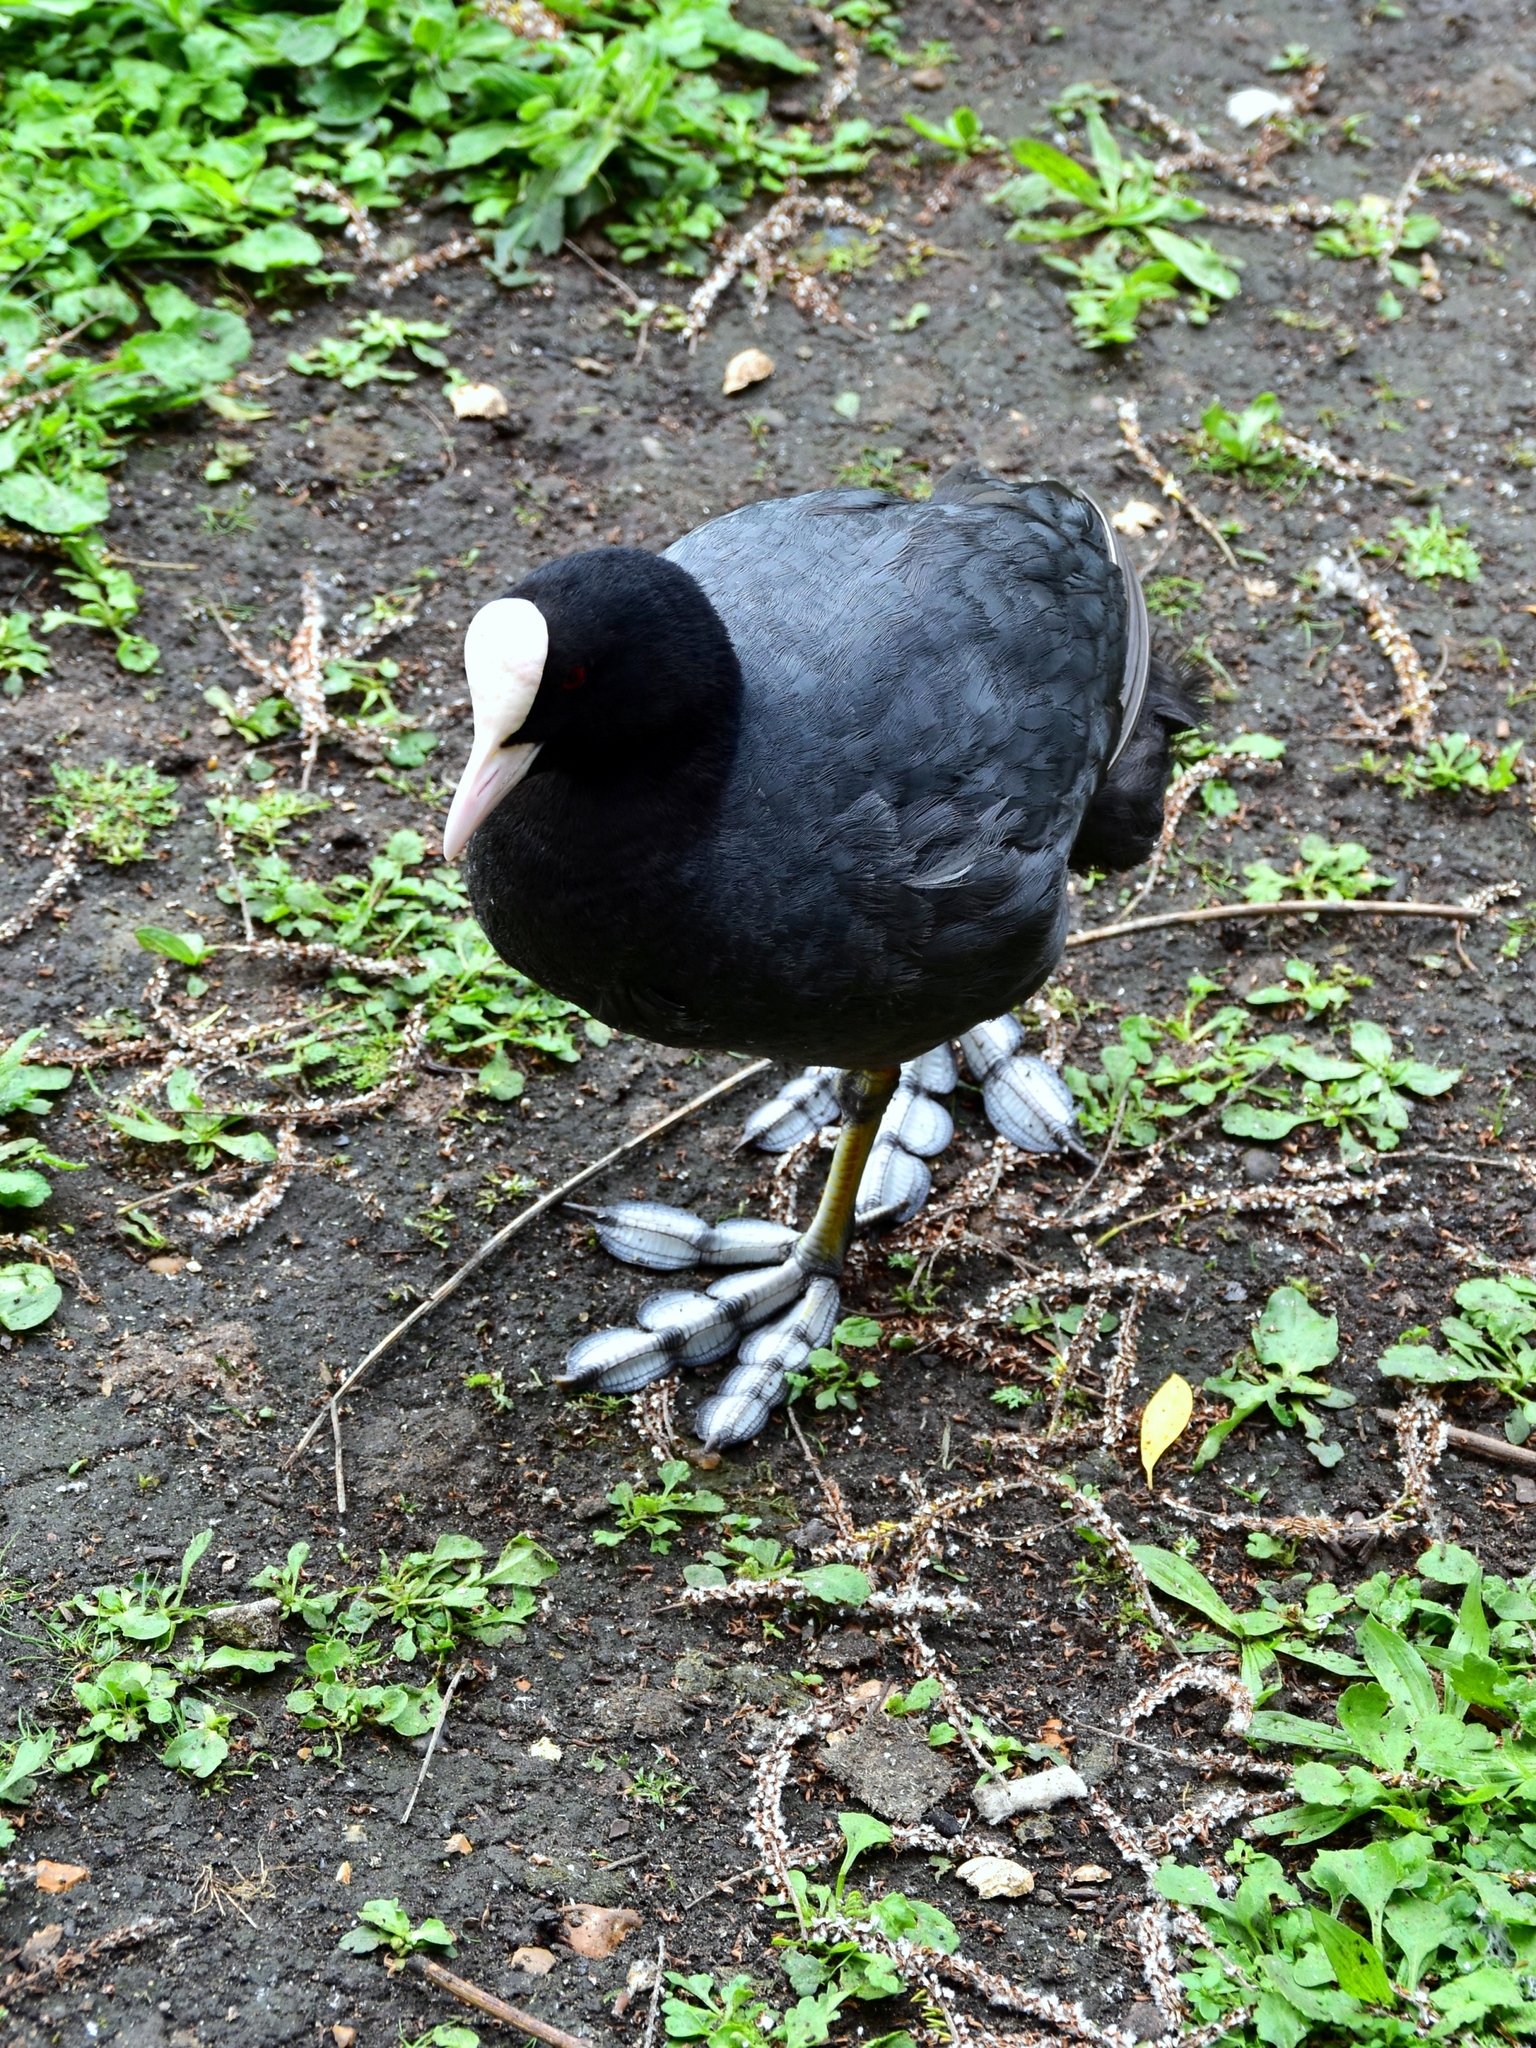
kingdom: Animalia
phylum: Chordata
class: Aves
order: Gruiformes
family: Rallidae
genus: Fulica
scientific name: Fulica atra
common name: Eurasian coot
